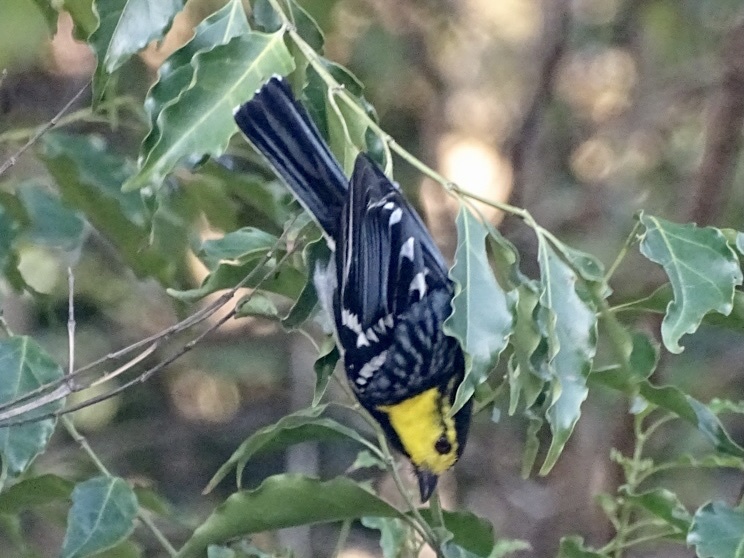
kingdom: Animalia
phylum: Chordata
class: Aves
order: Passeriformes
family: Paridae
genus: Parus
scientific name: Parus spilonotus
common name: Yellow-cheeked tit
